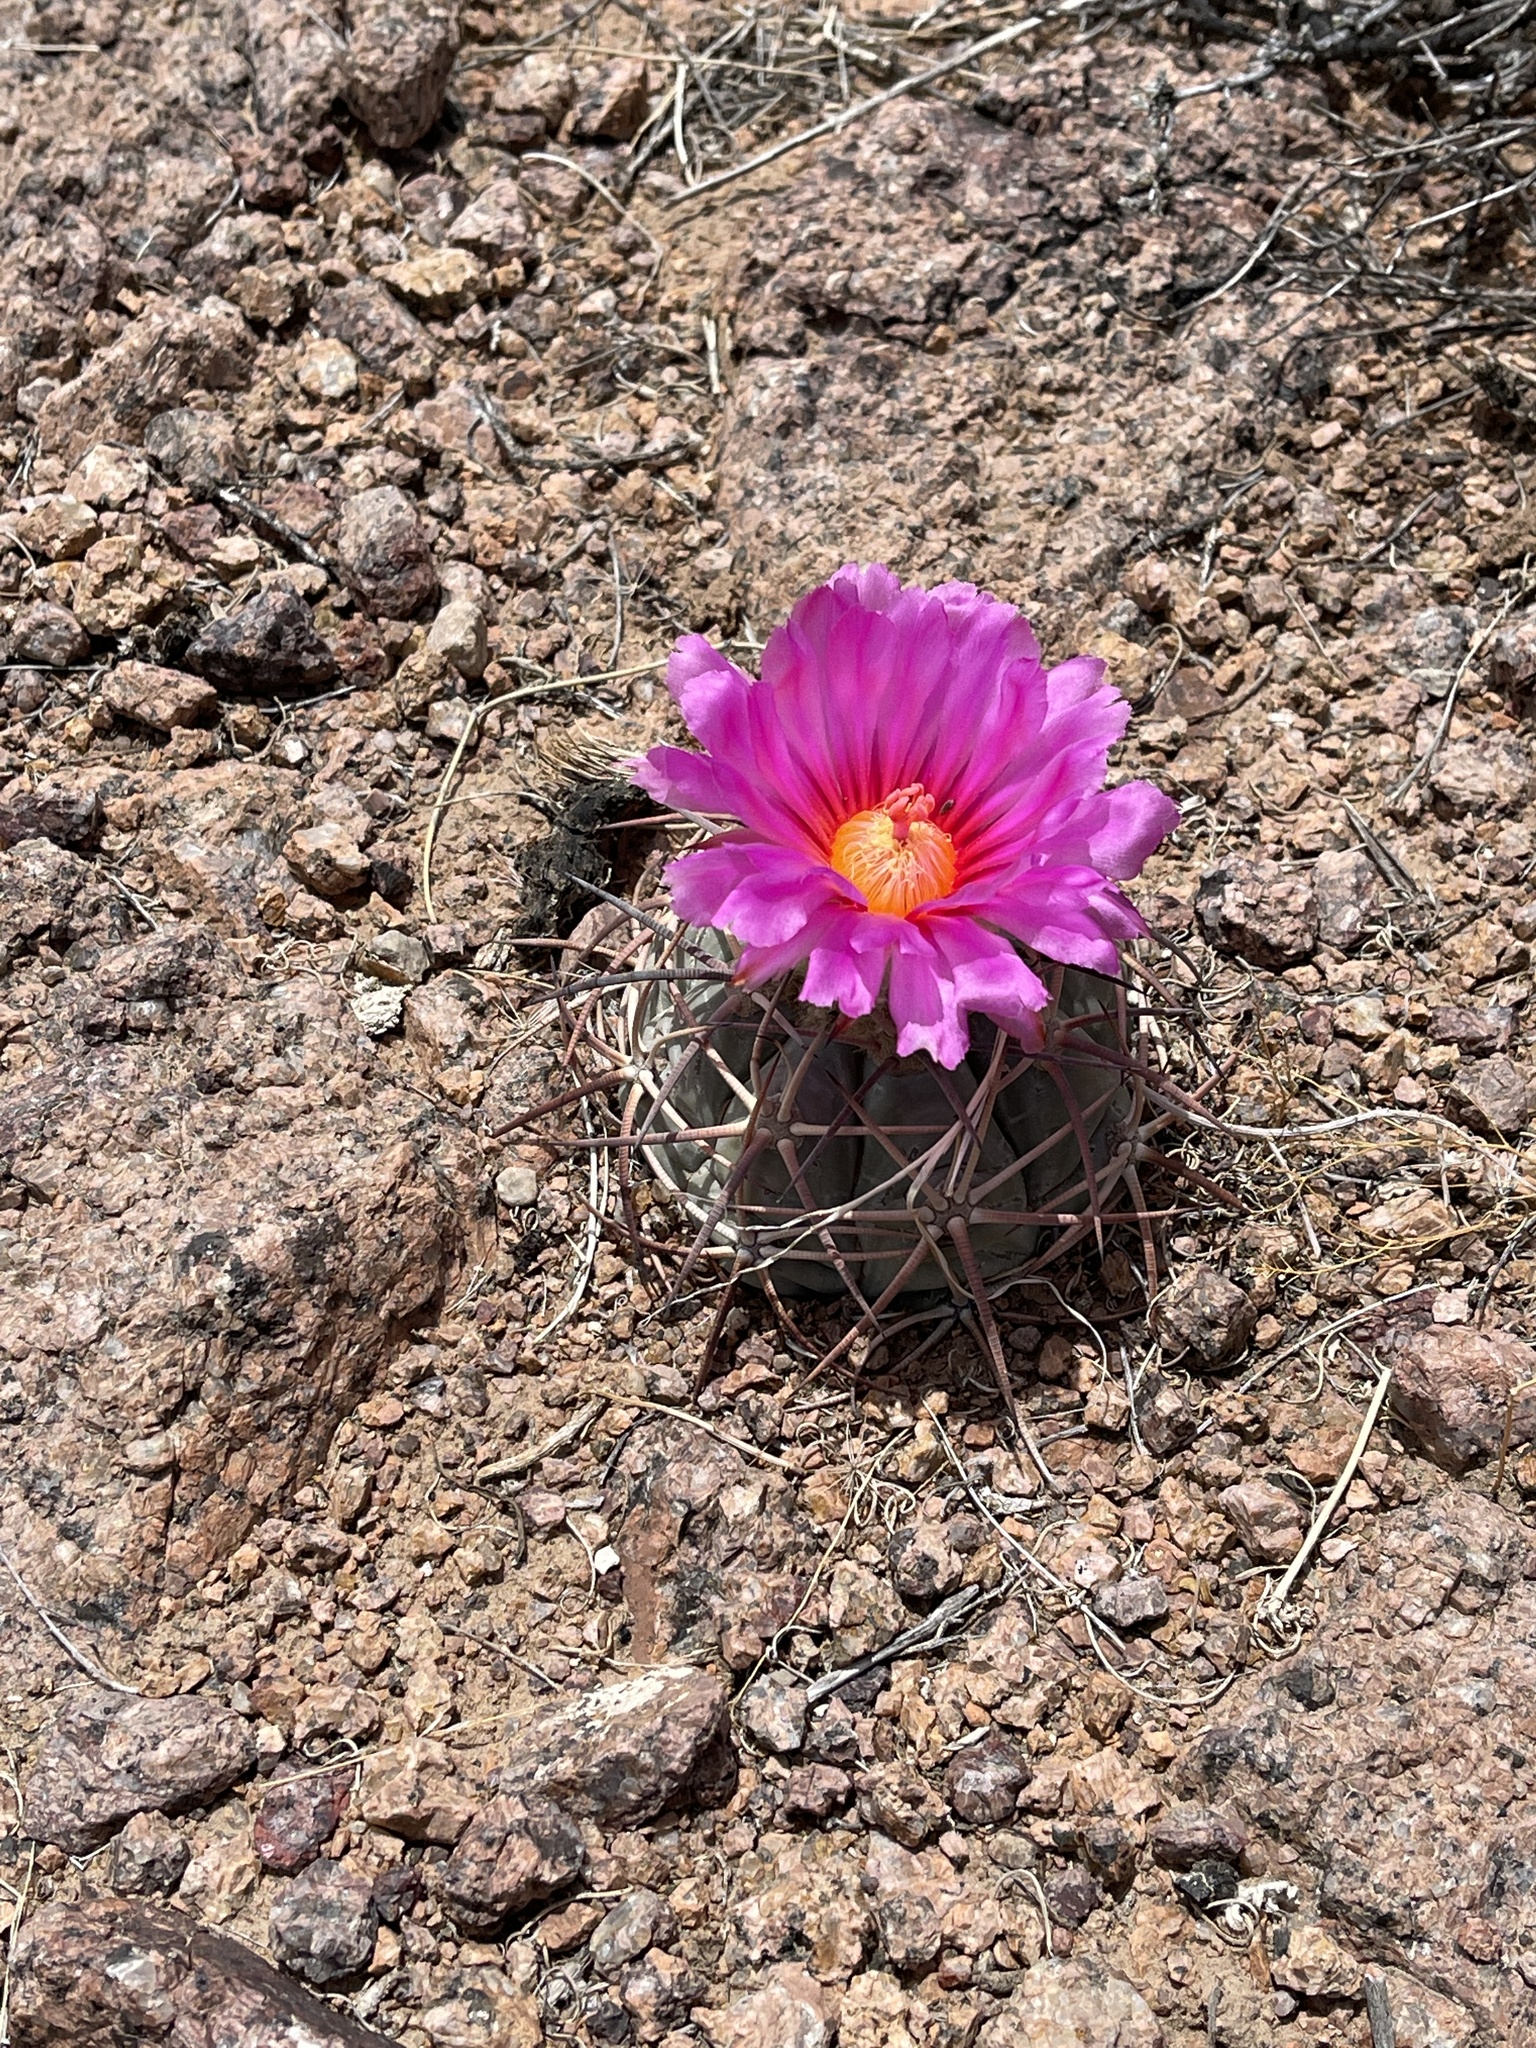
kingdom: Plantae
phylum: Tracheophyta
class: Magnoliopsida
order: Caryophyllales
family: Cactaceae
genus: Echinocactus
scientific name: Echinocactus horizonthalonius
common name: Devilshead
